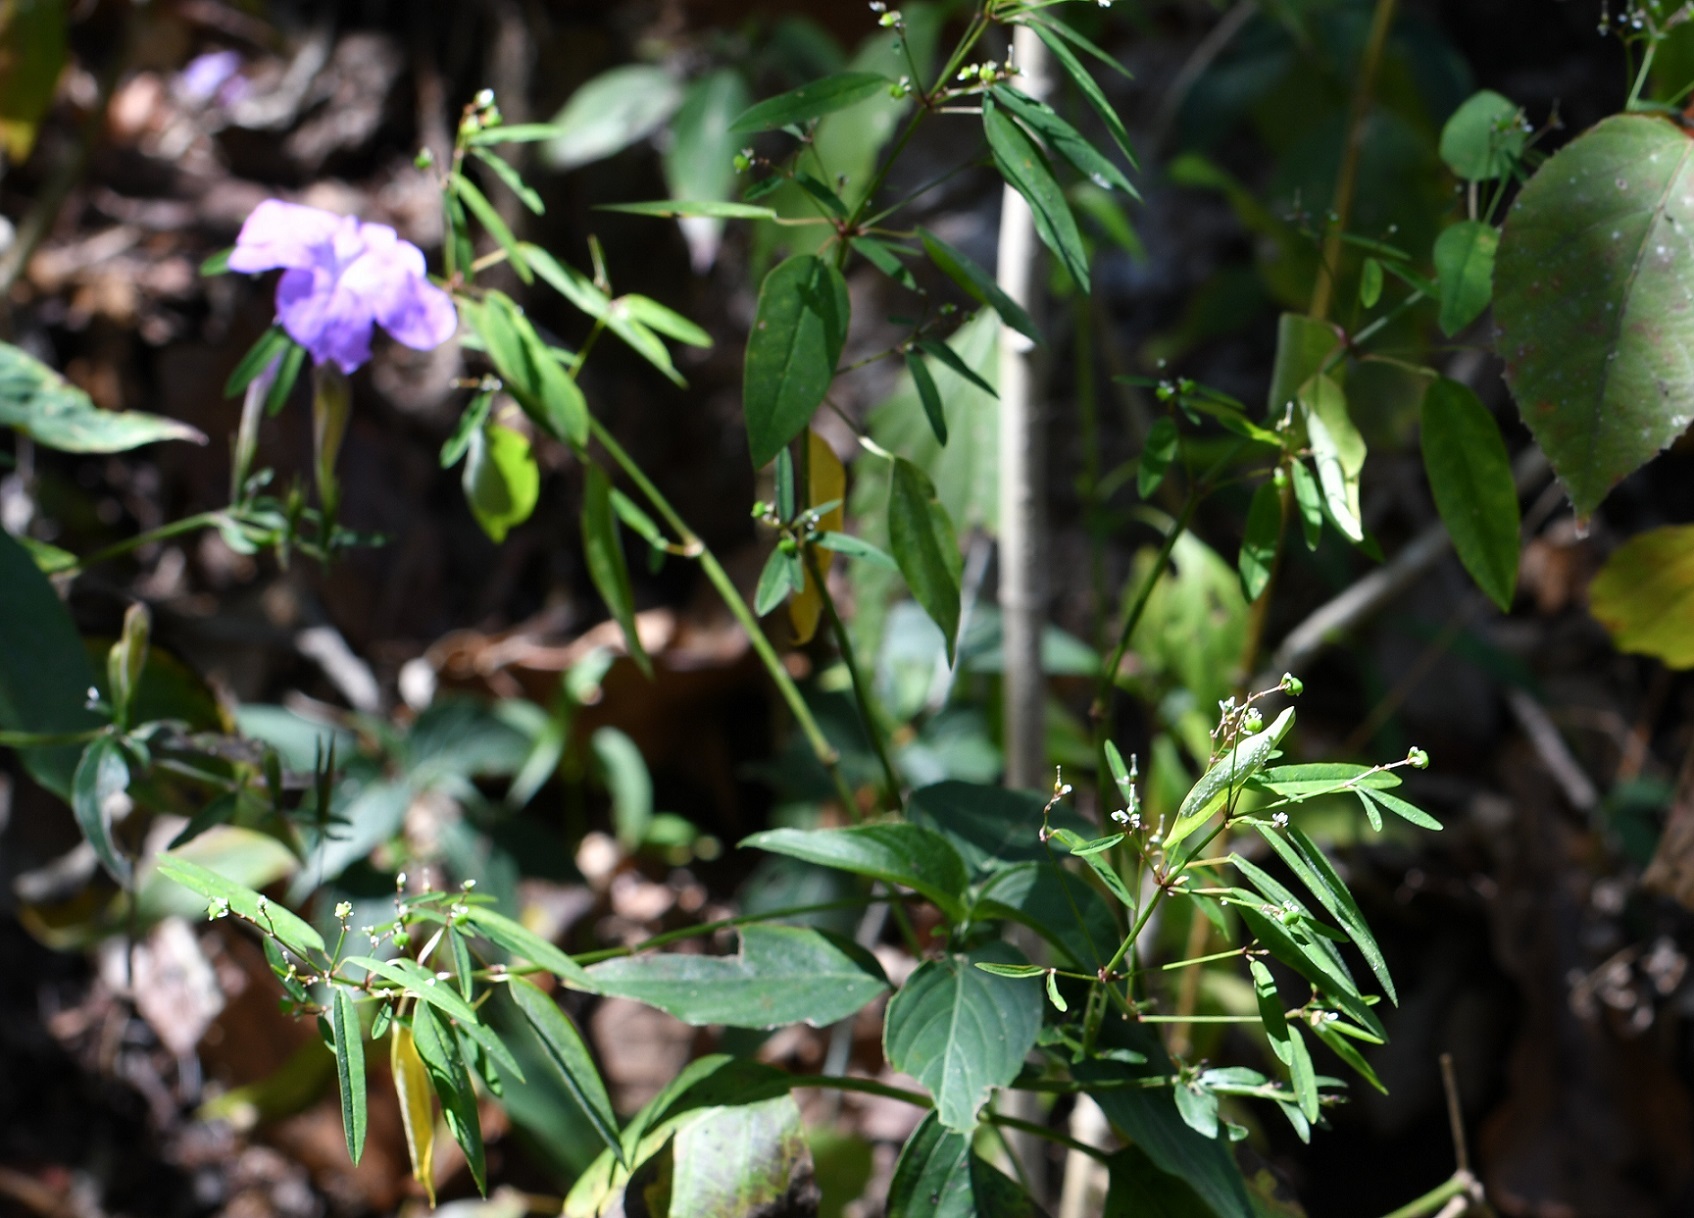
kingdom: Plantae
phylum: Tracheophyta
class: Magnoliopsida
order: Malpighiales
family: Euphorbiaceae
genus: Euphorbia
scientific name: Euphorbia ariensis
